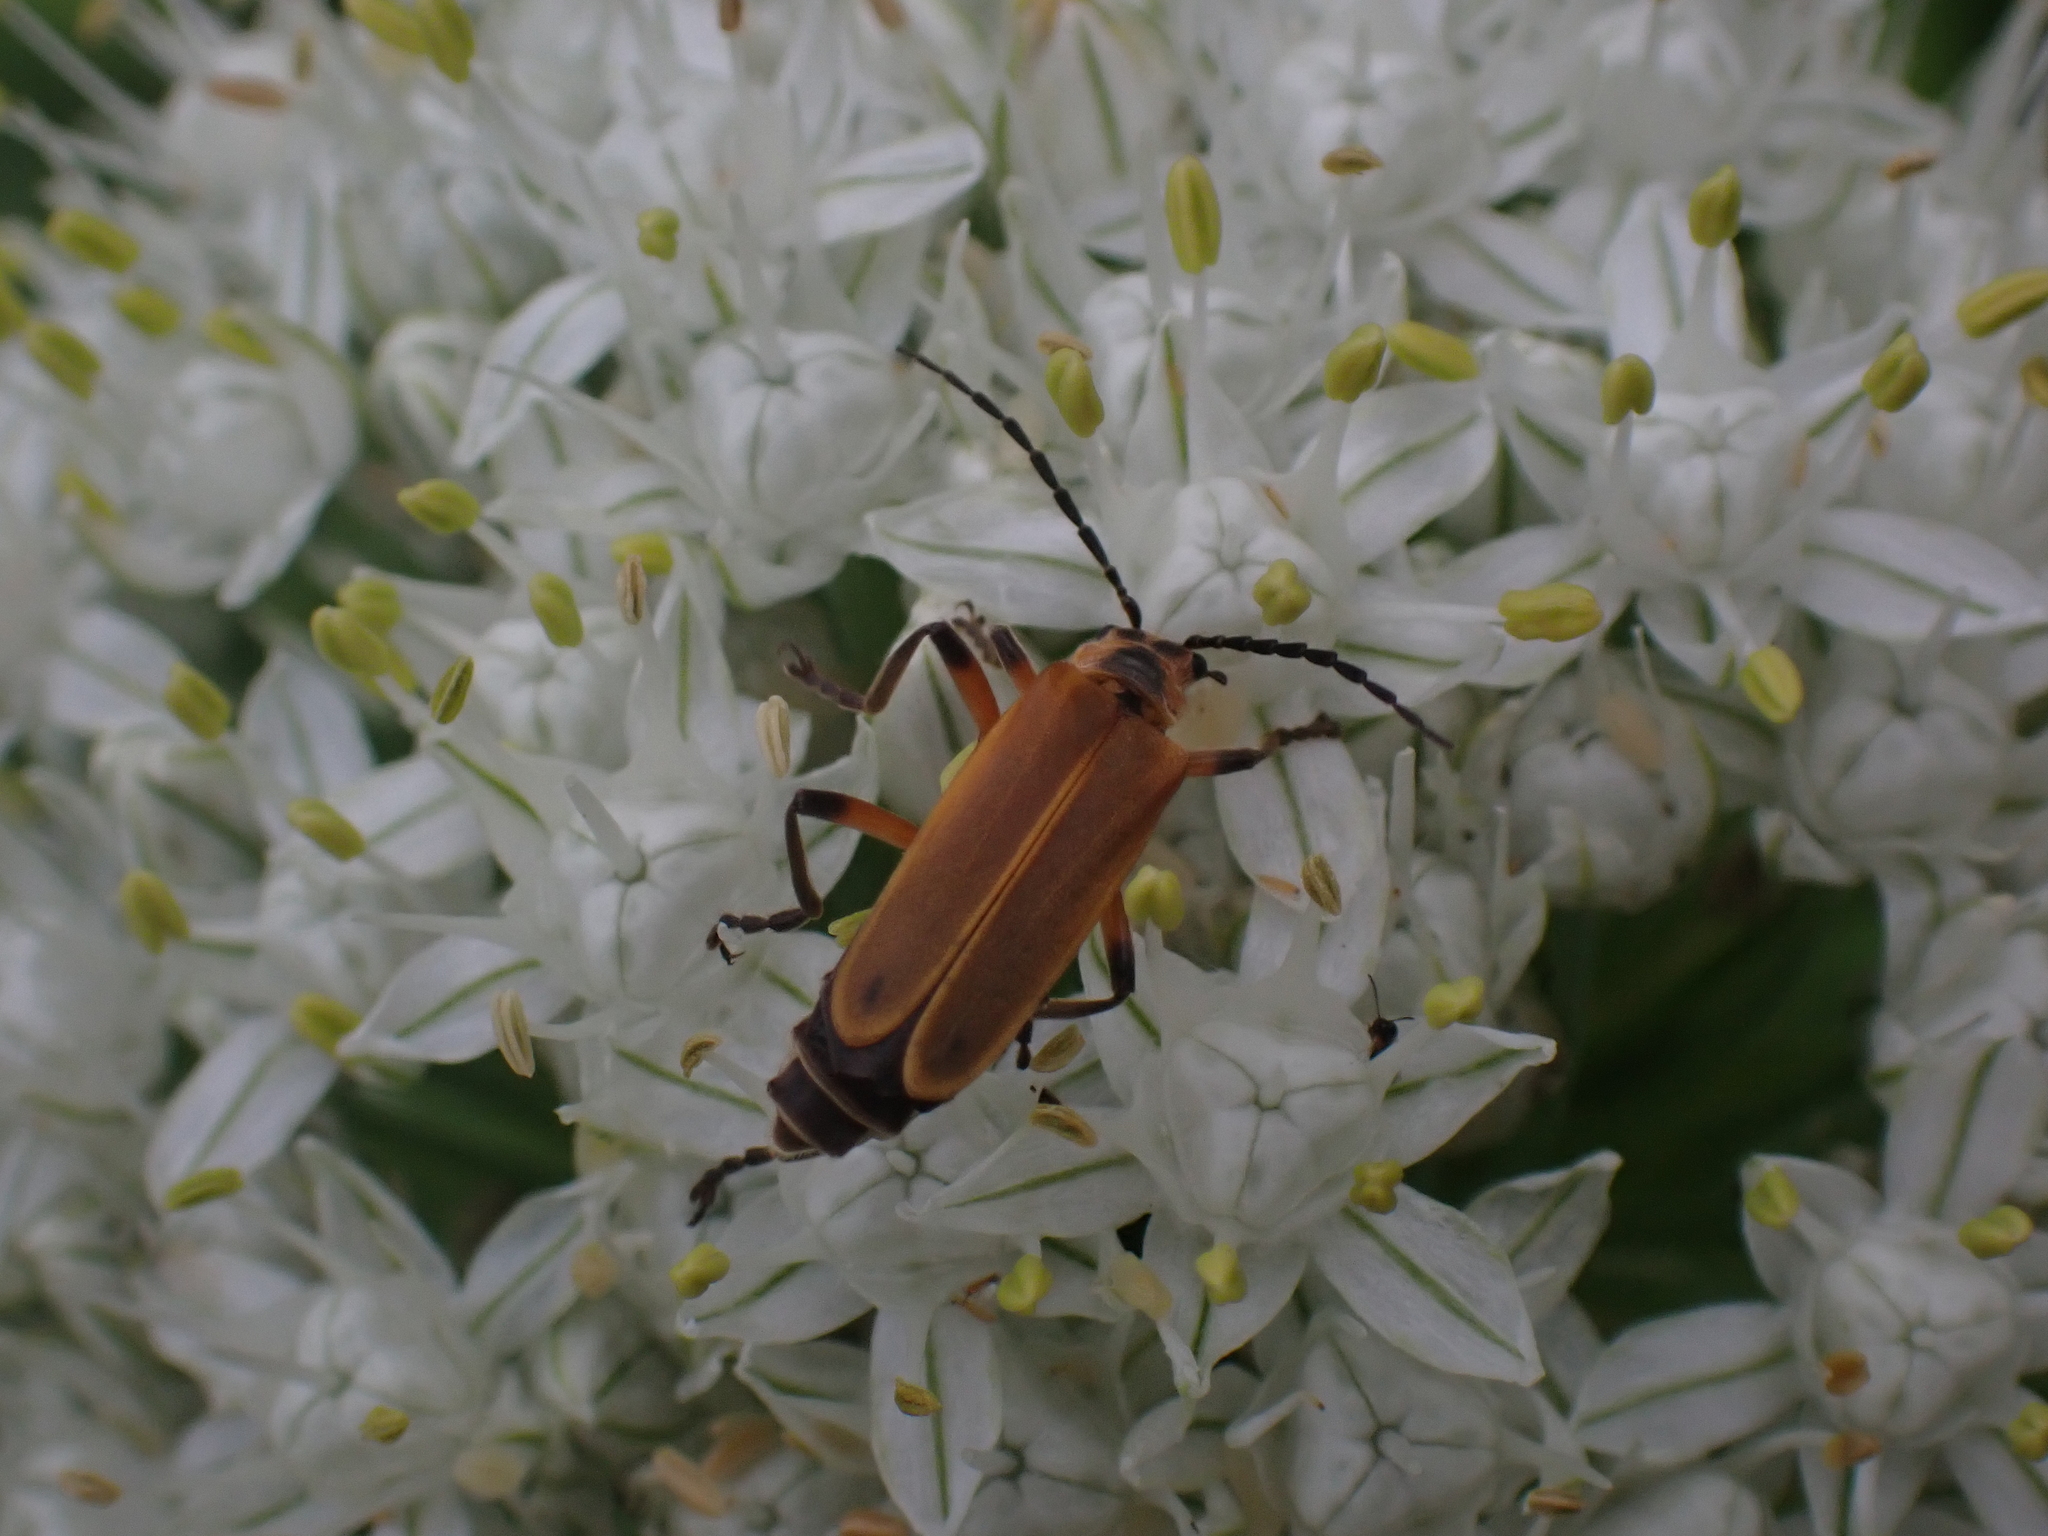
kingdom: Animalia
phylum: Arthropoda
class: Insecta
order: Coleoptera
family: Cantharidae
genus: Chauliognathus
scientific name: Chauliognathus marginatus
